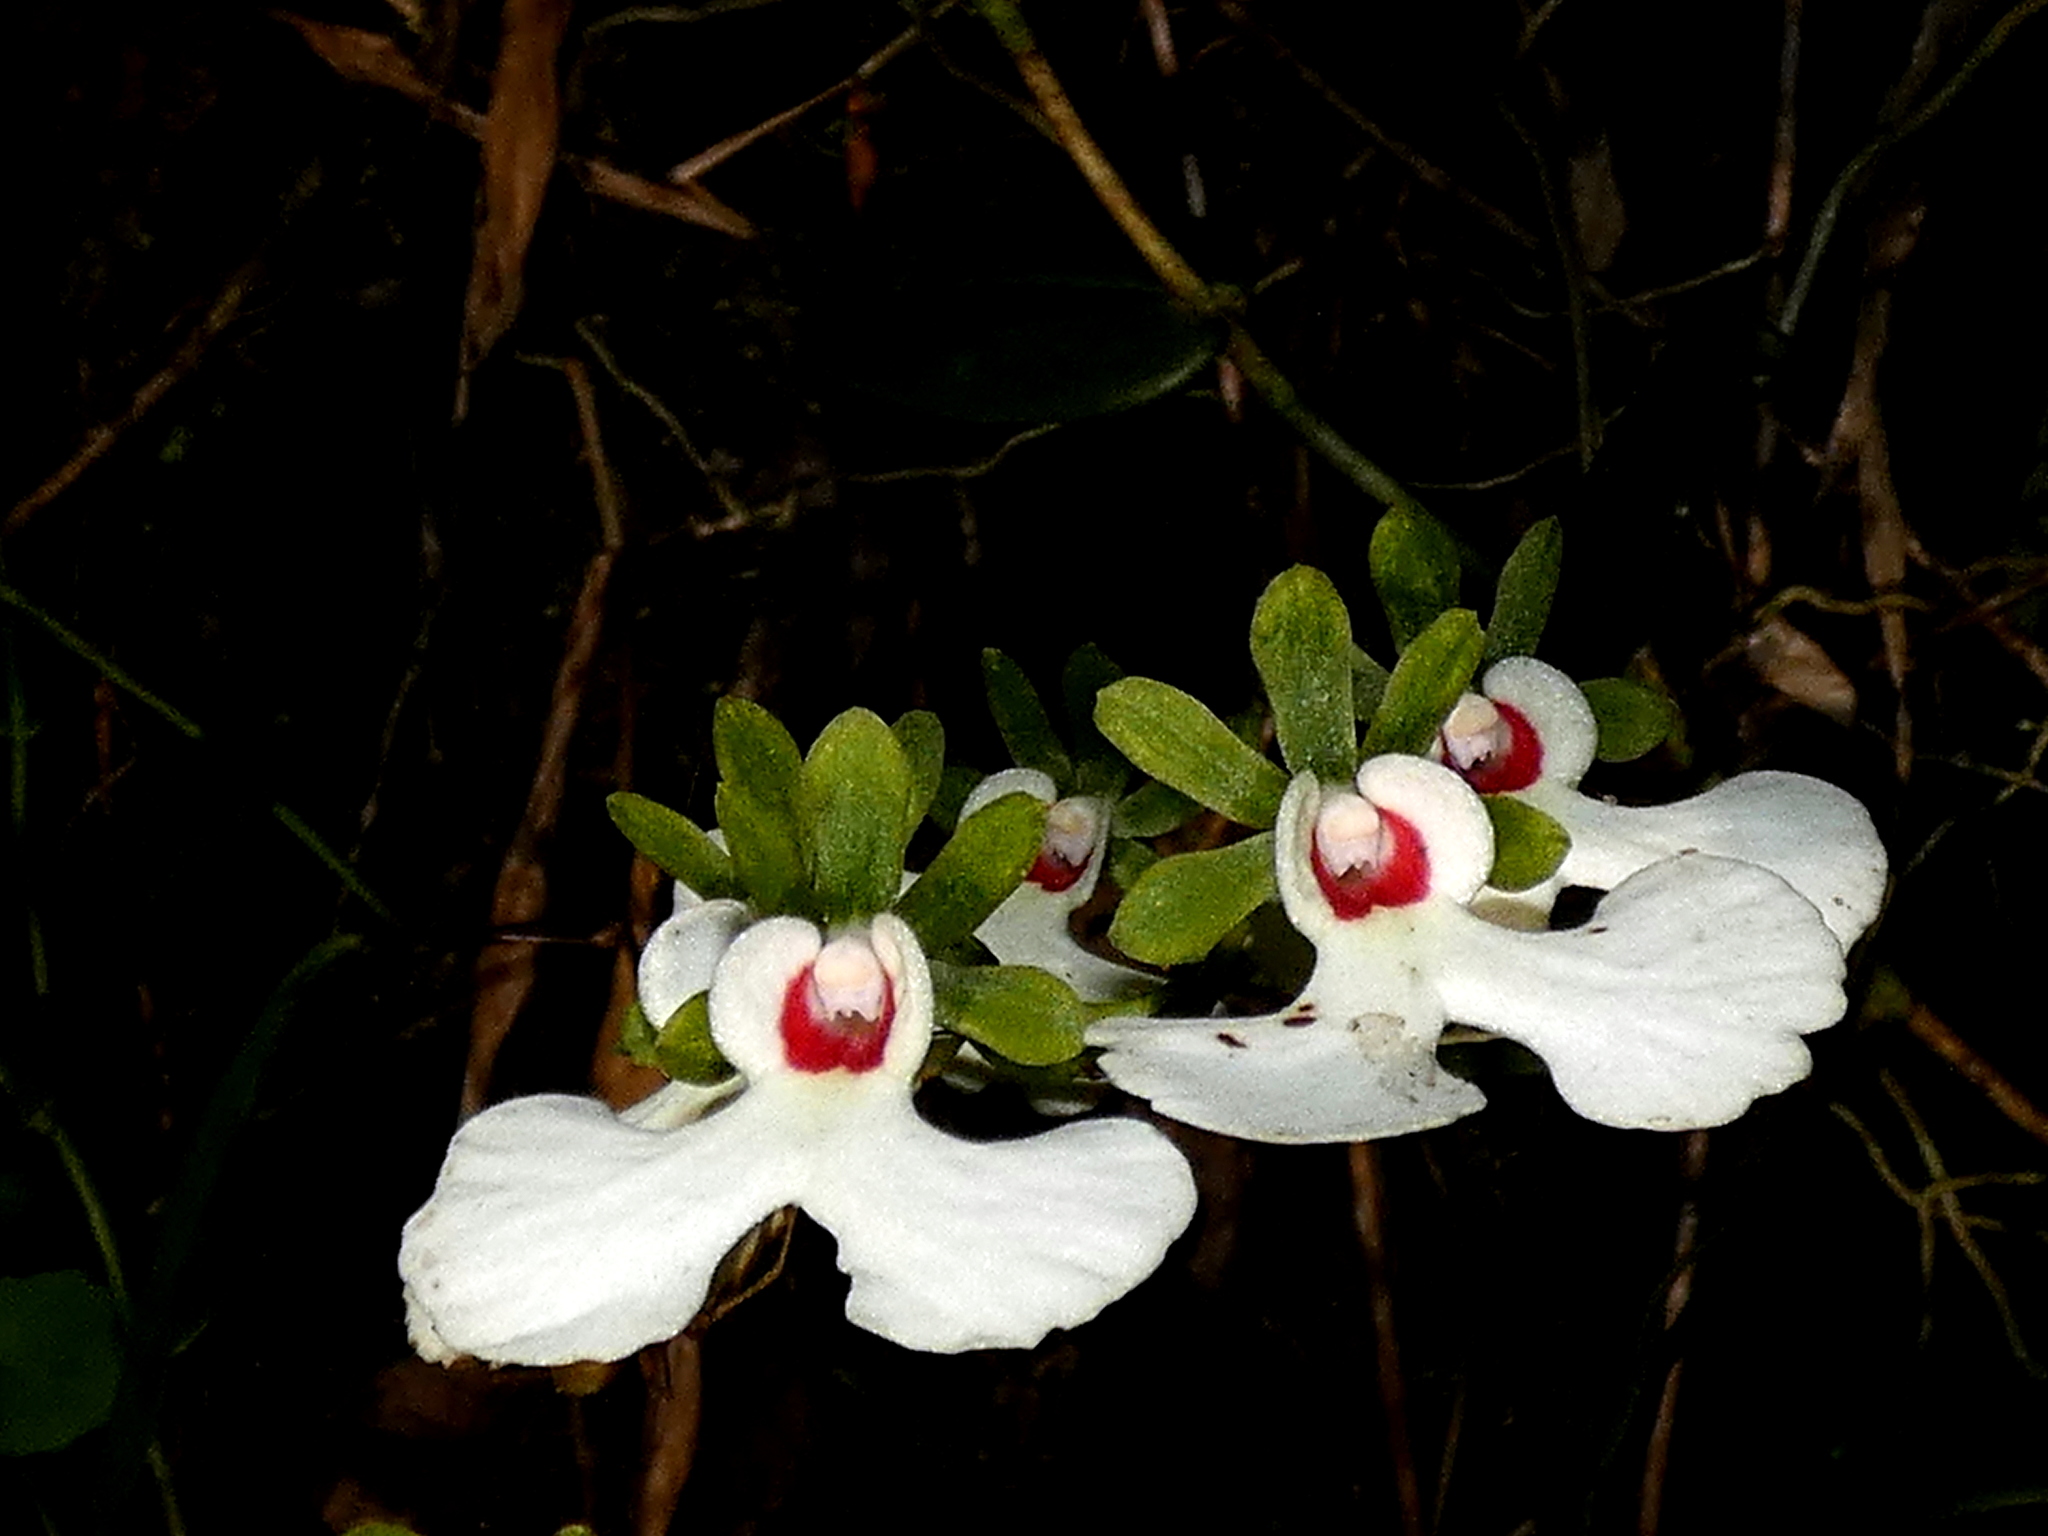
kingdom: Plantae
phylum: Tracheophyta
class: Liliopsida
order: Asparagales
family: Orchidaceae
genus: Oeonia
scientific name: Oeonia rosea
